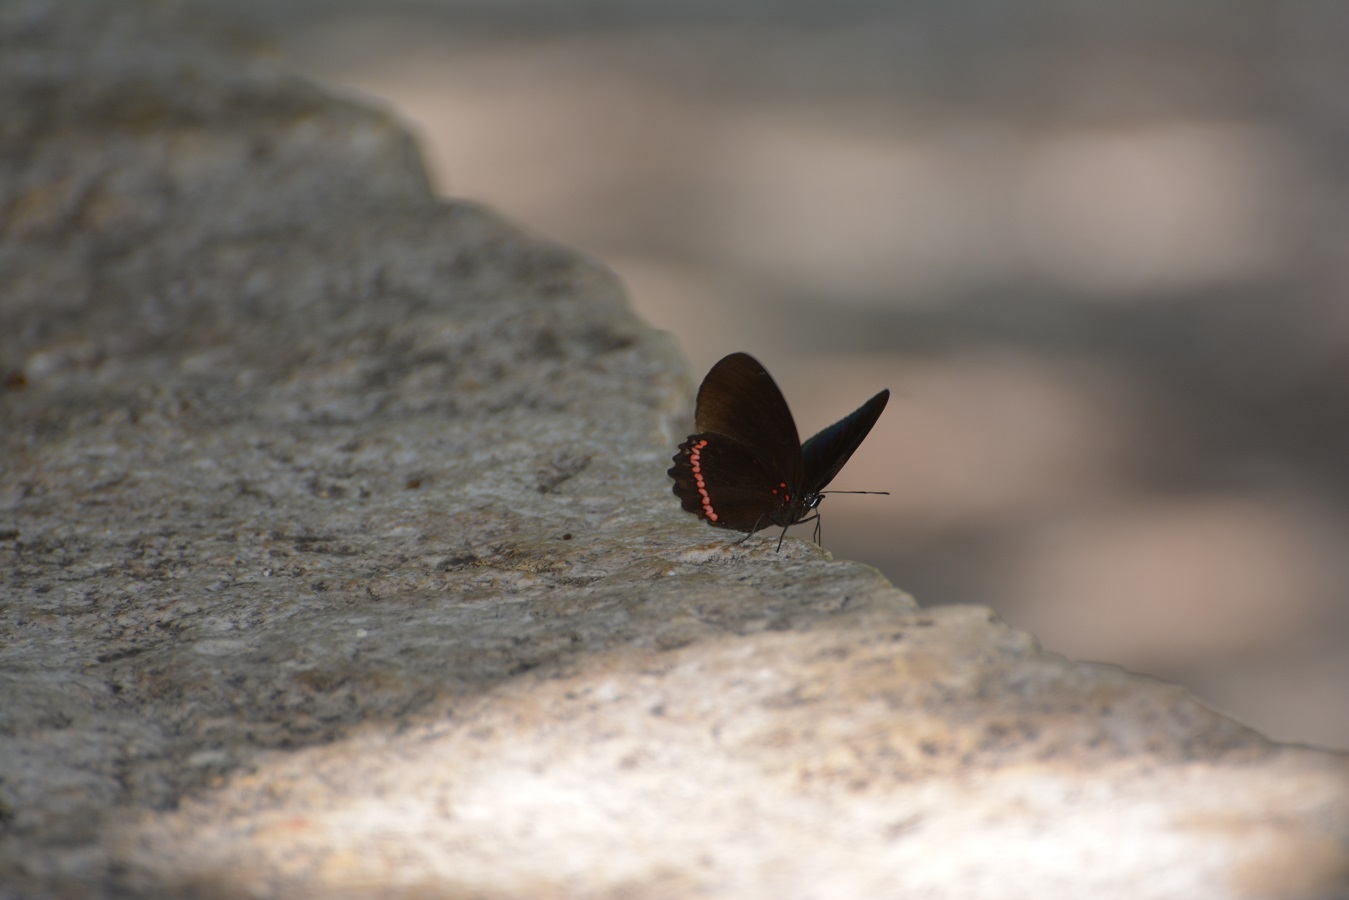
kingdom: Animalia
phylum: Arthropoda
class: Insecta
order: Lepidoptera
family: Nymphalidae
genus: Biblis
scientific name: Biblis aganisa
